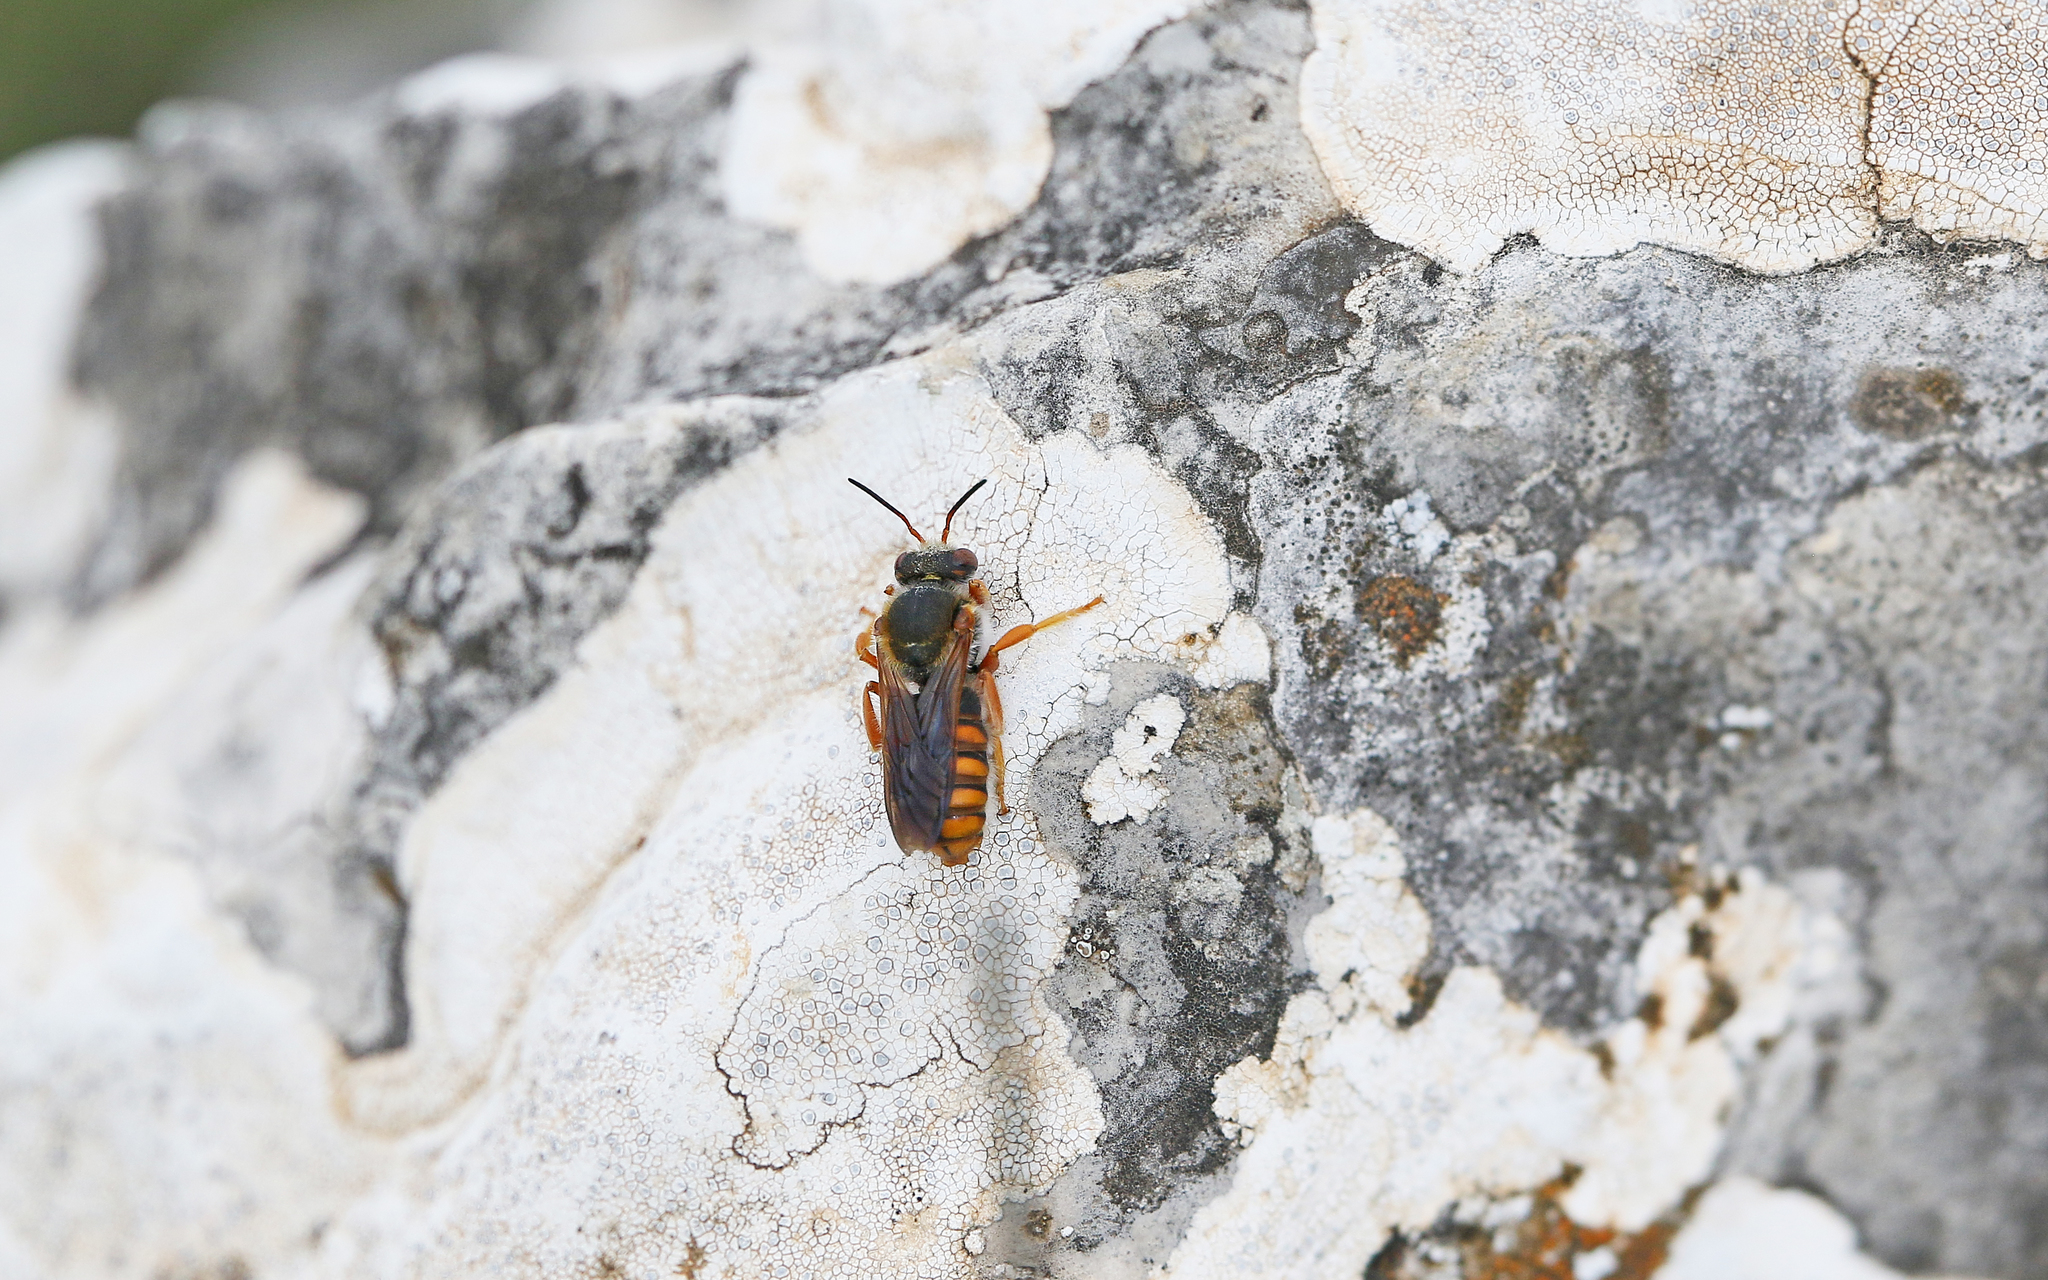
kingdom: Animalia
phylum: Arthropoda
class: Insecta
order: Hymenoptera
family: Megachilidae
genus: Rhodanthidium
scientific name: Rhodanthidium sticticum
